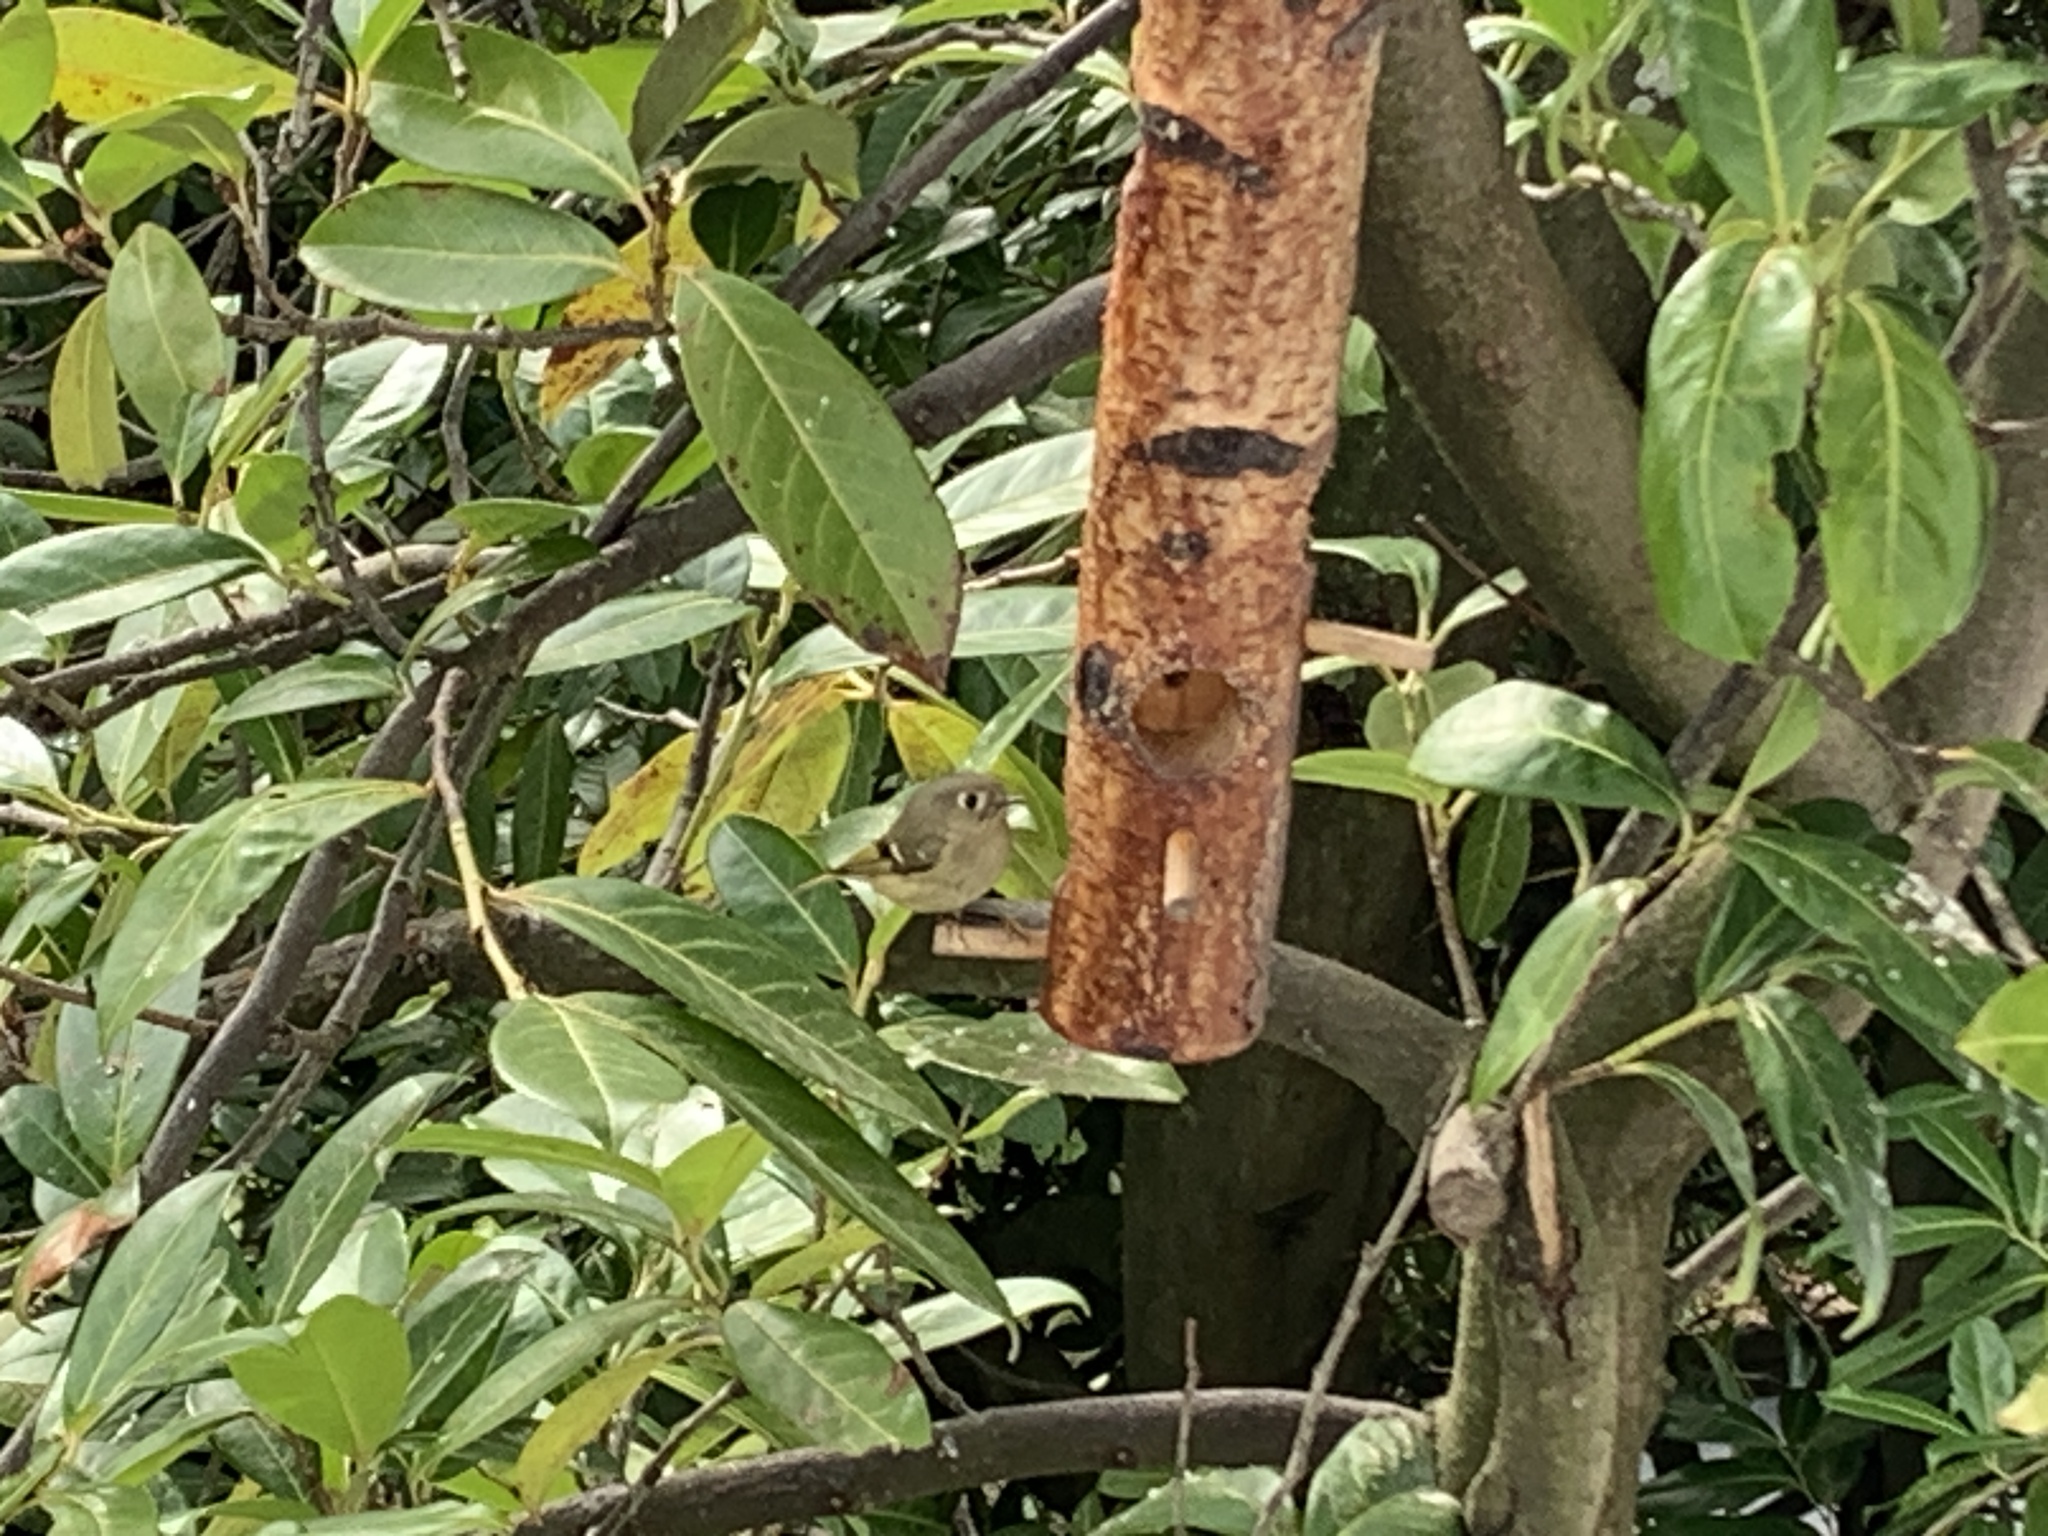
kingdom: Animalia
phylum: Chordata
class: Aves
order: Passeriformes
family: Regulidae
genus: Regulus
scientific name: Regulus calendula
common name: Ruby-crowned kinglet
